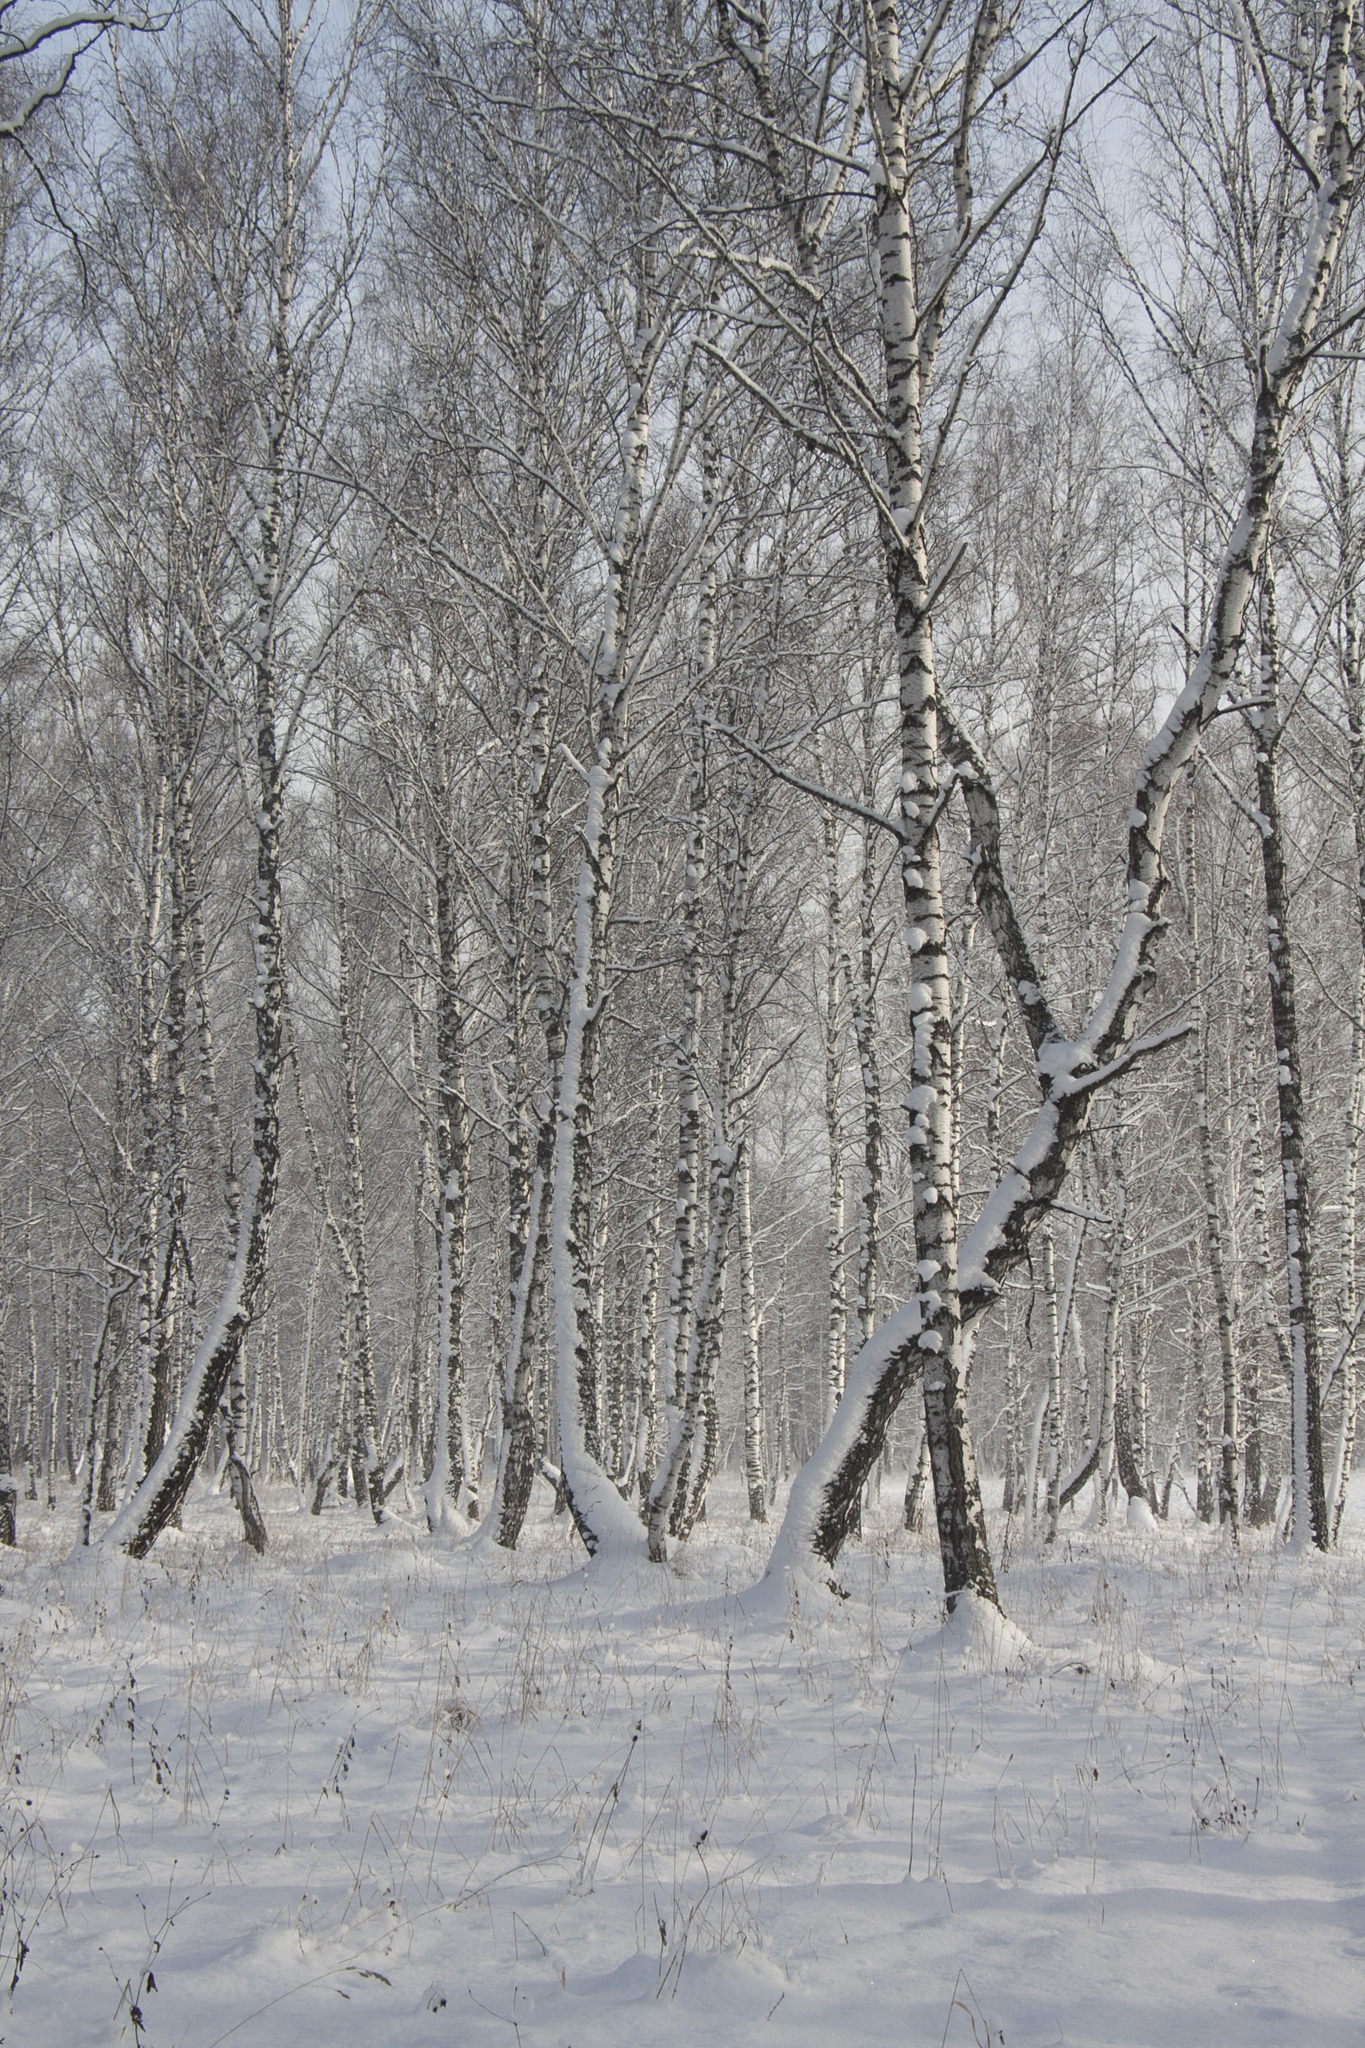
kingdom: Plantae
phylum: Tracheophyta
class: Magnoliopsida
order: Fagales
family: Betulaceae
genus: Betula
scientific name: Betula pendula
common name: Silver birch
